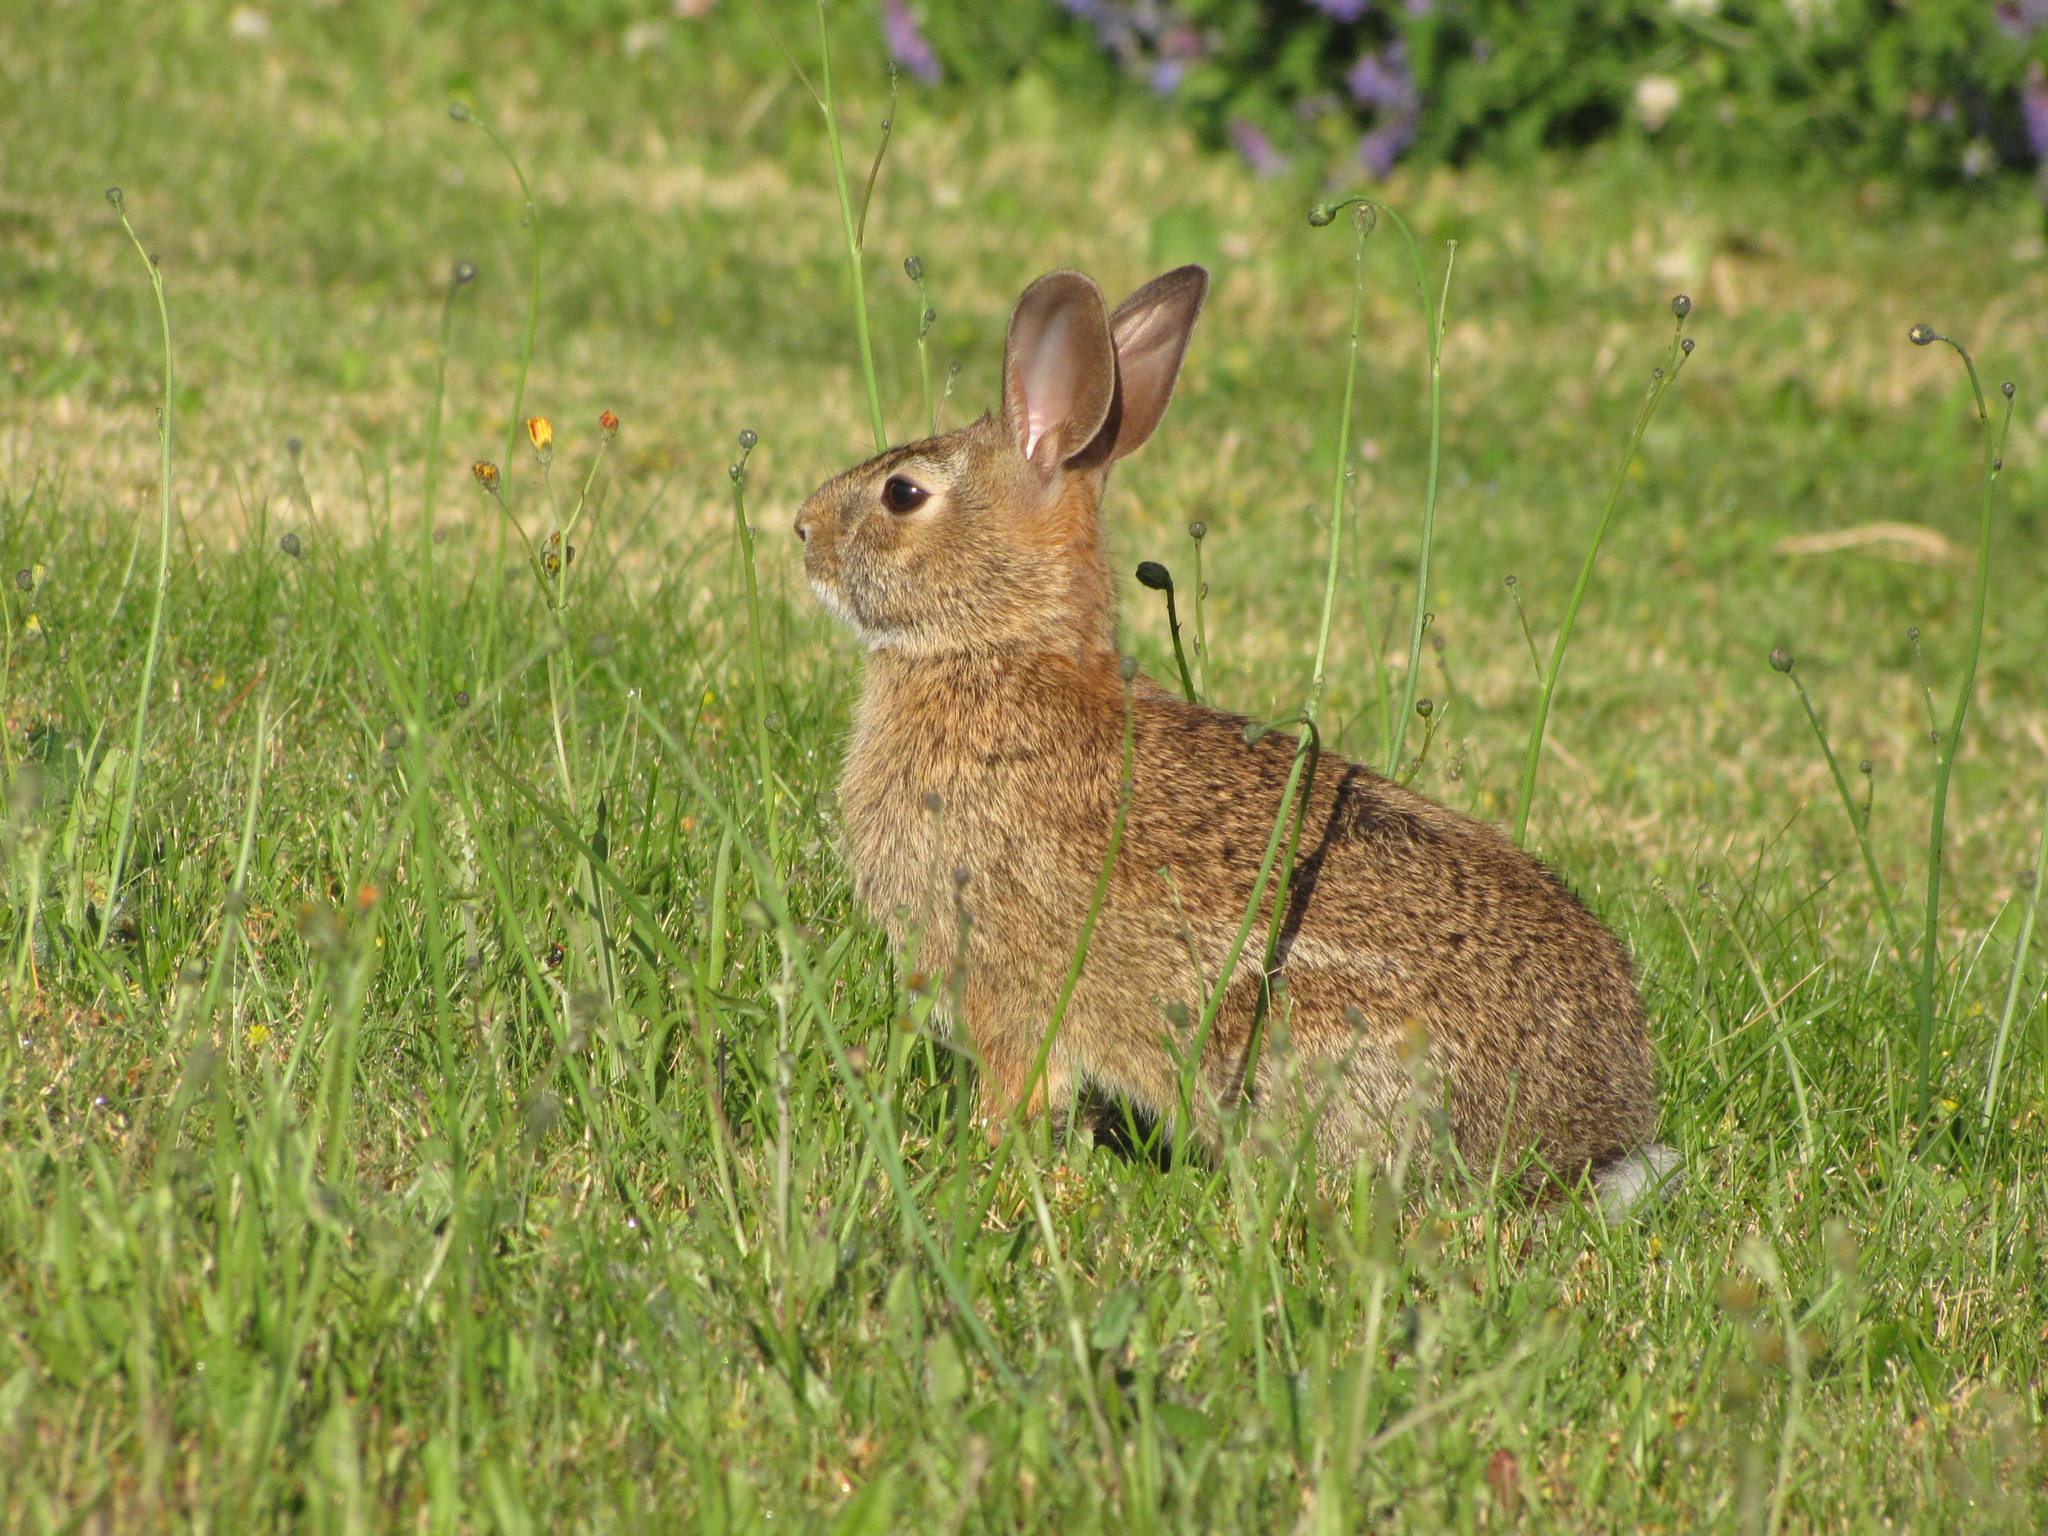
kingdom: Animalia
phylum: Chordata
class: Mammalia
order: Lagomorpha
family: Leporidae
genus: Sylvilagus
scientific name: Sylvilagus floridanus
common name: Eastern cottontail
